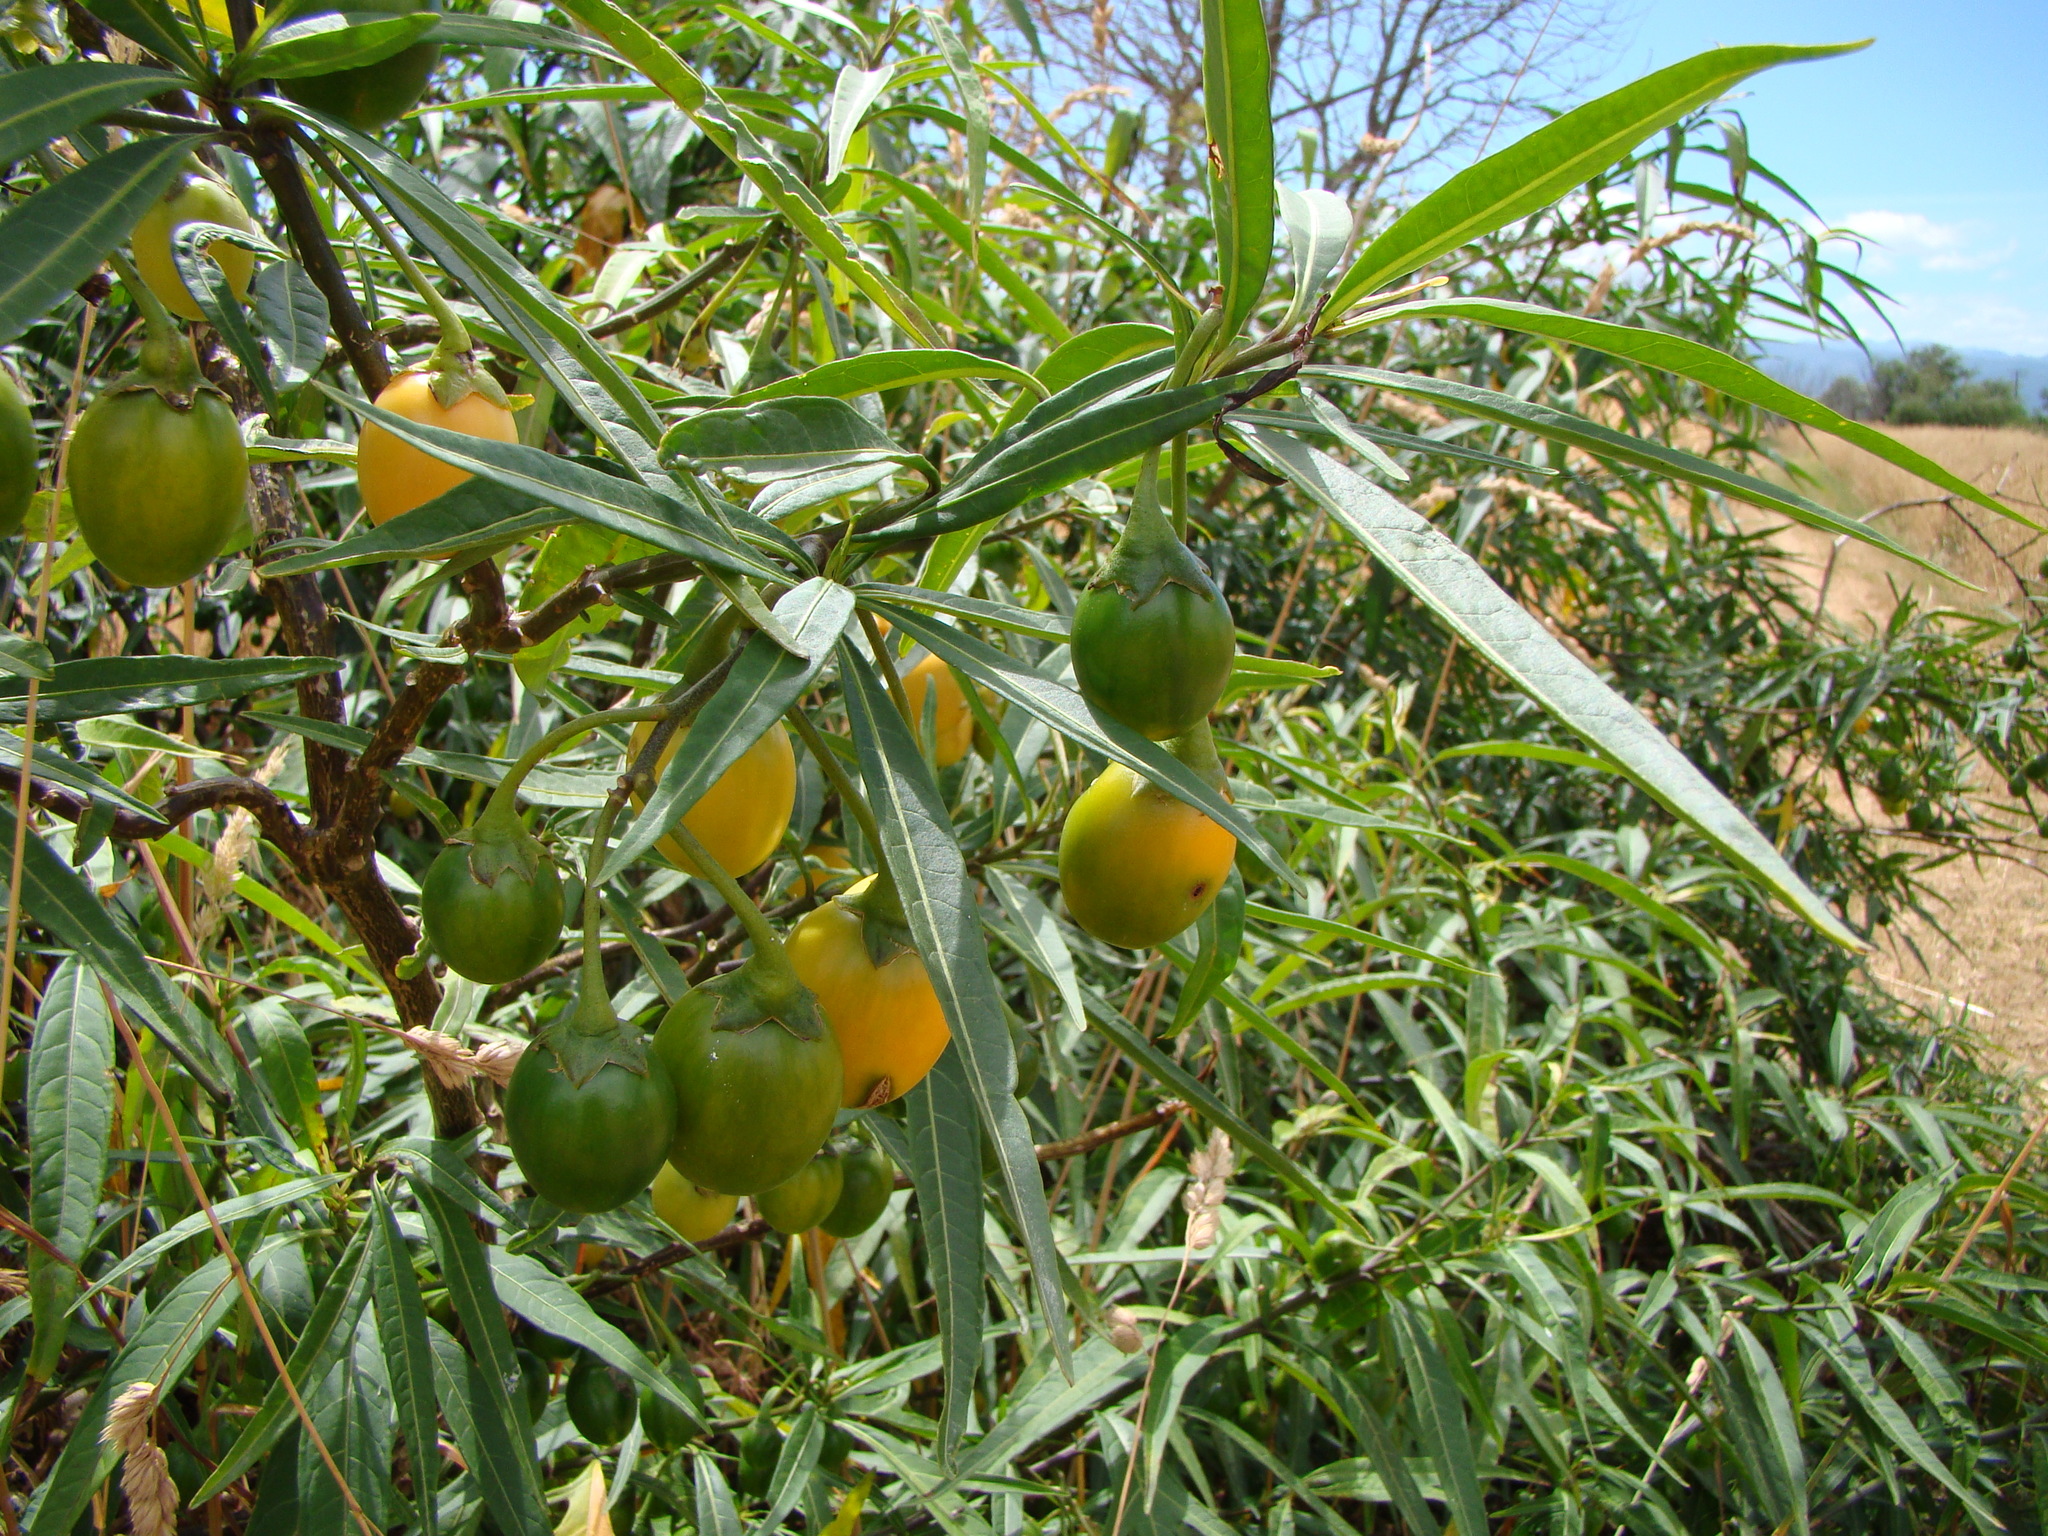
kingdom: Plantae
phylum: Tracheophyta
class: Magnoliopsida
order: Solanales
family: Solanaceae
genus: Solanum
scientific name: Solanum laciniatum
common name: Kangaroo-apple
